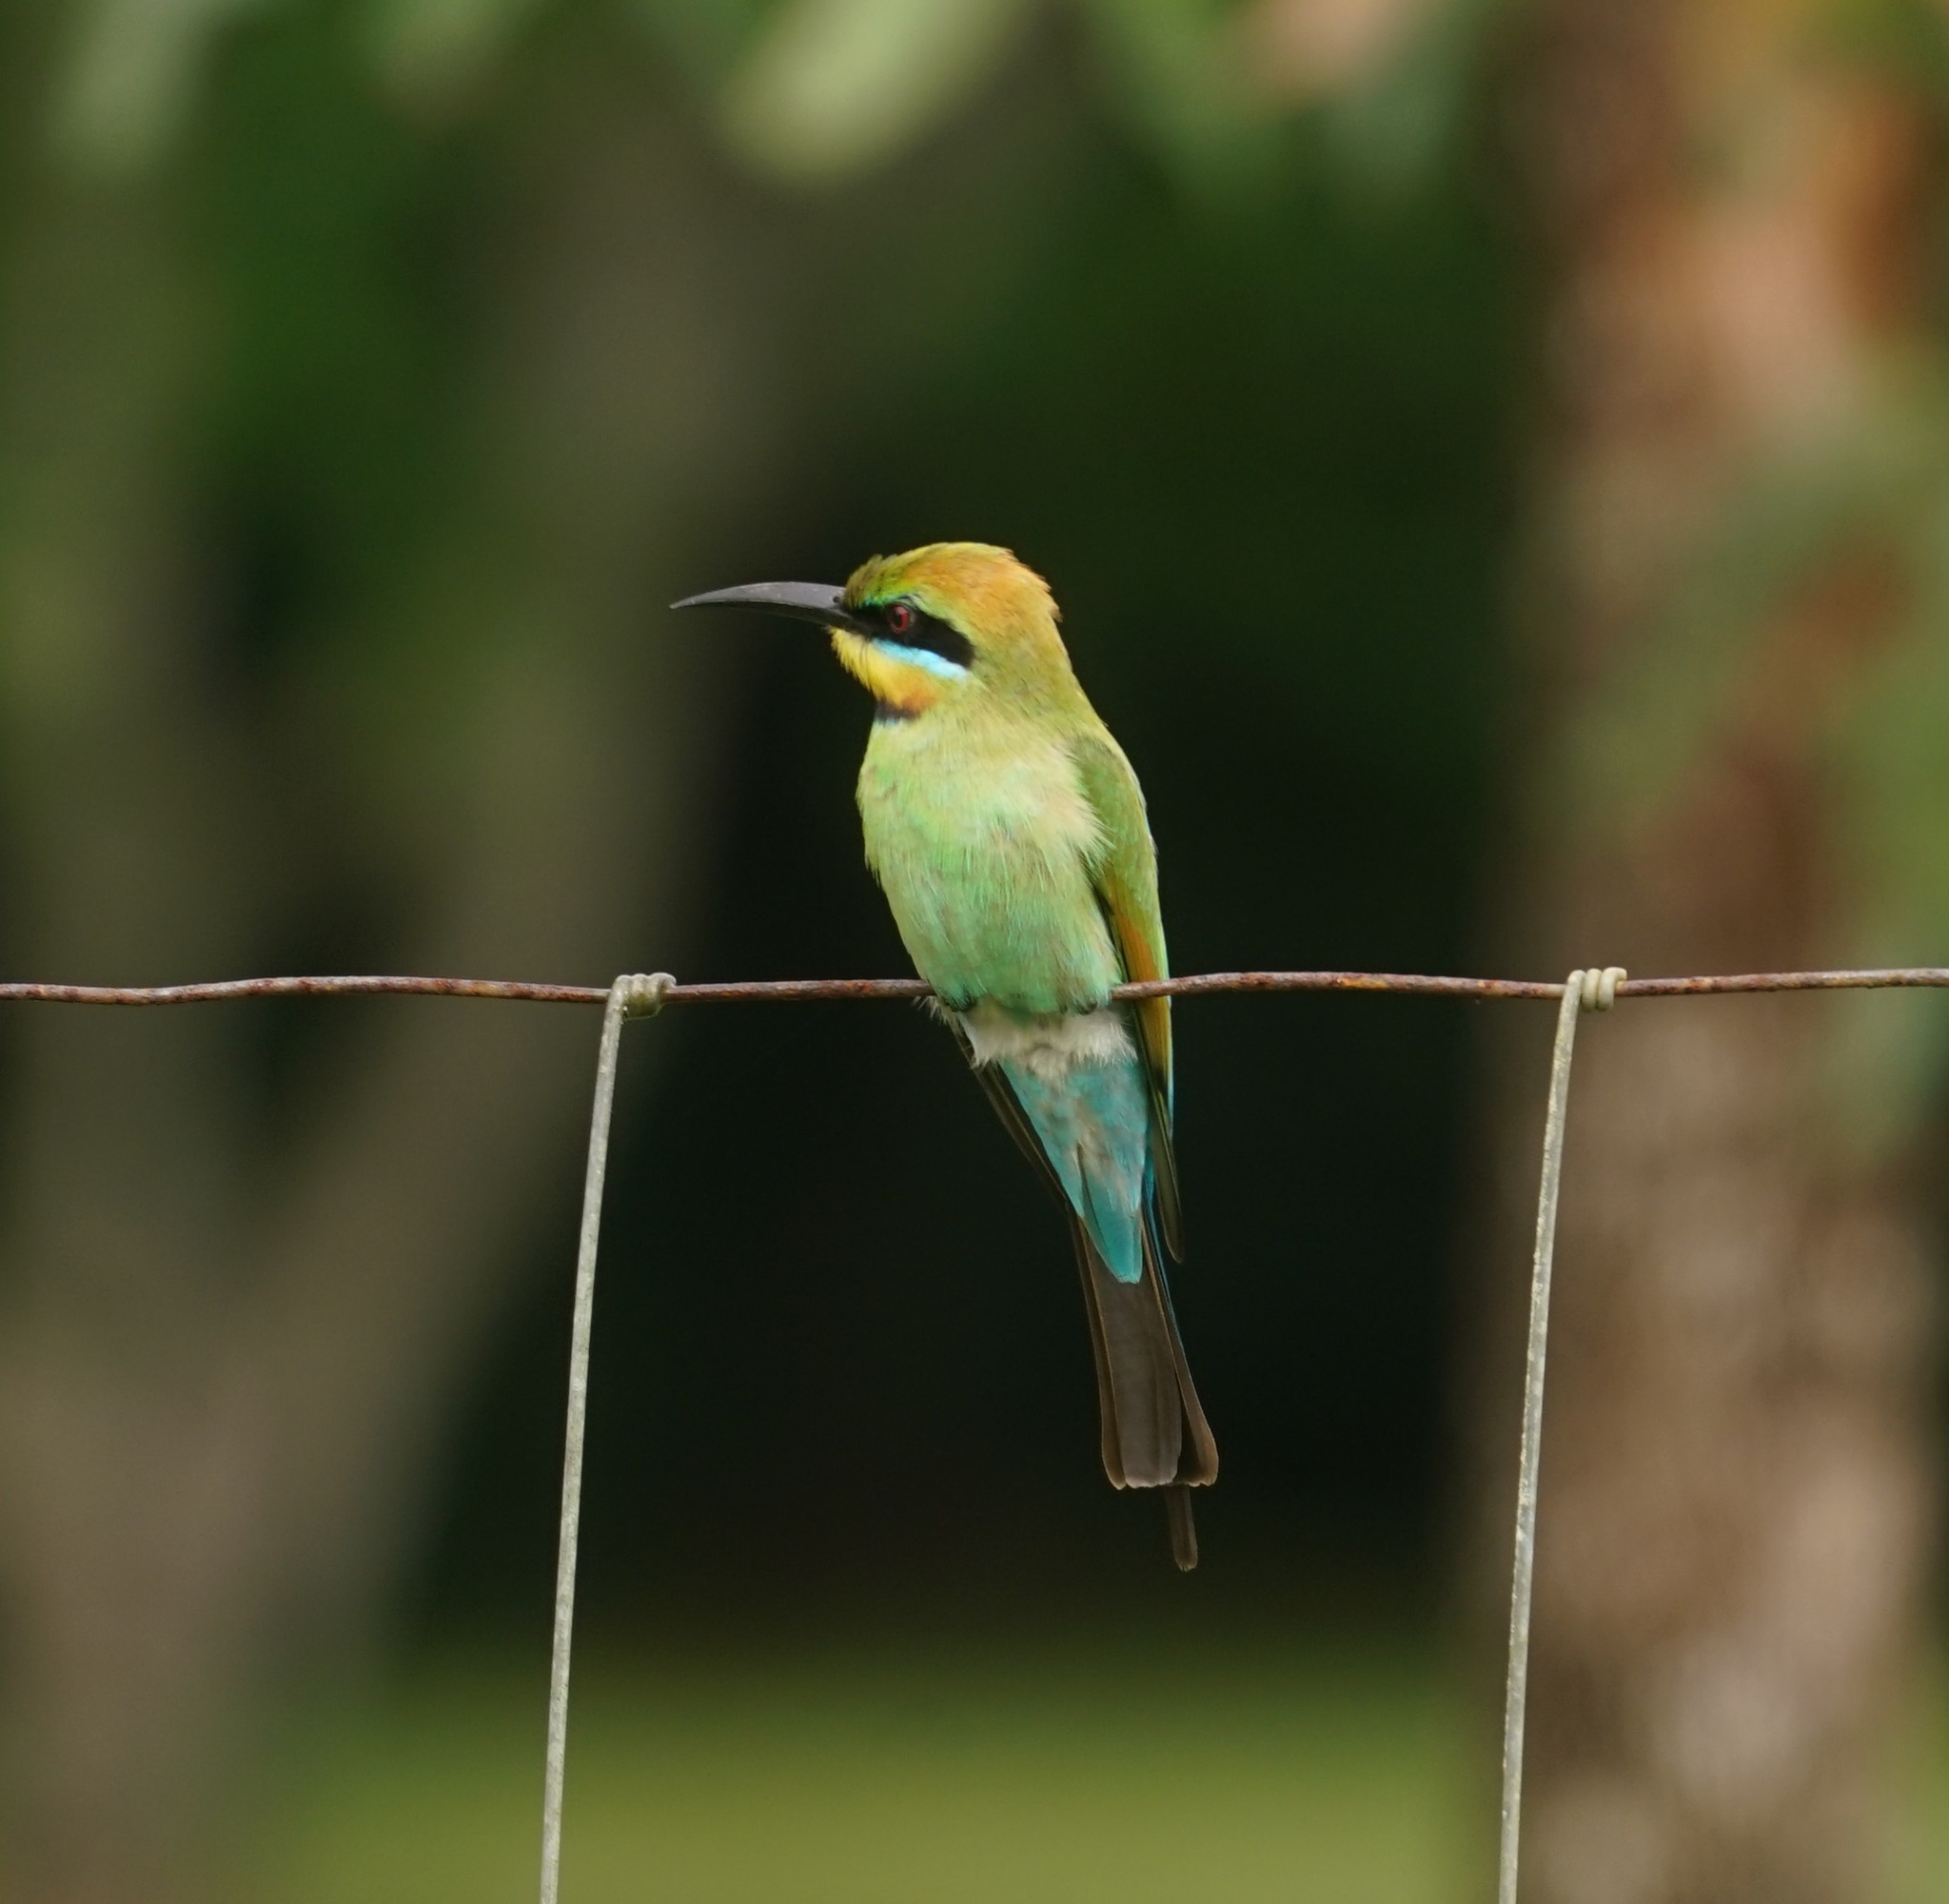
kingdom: Animalia
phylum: Chordata
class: Aves
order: Coraciiformes
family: Meropidae
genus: Merops
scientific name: Merops ornatus
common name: Rainbow bee-eater
